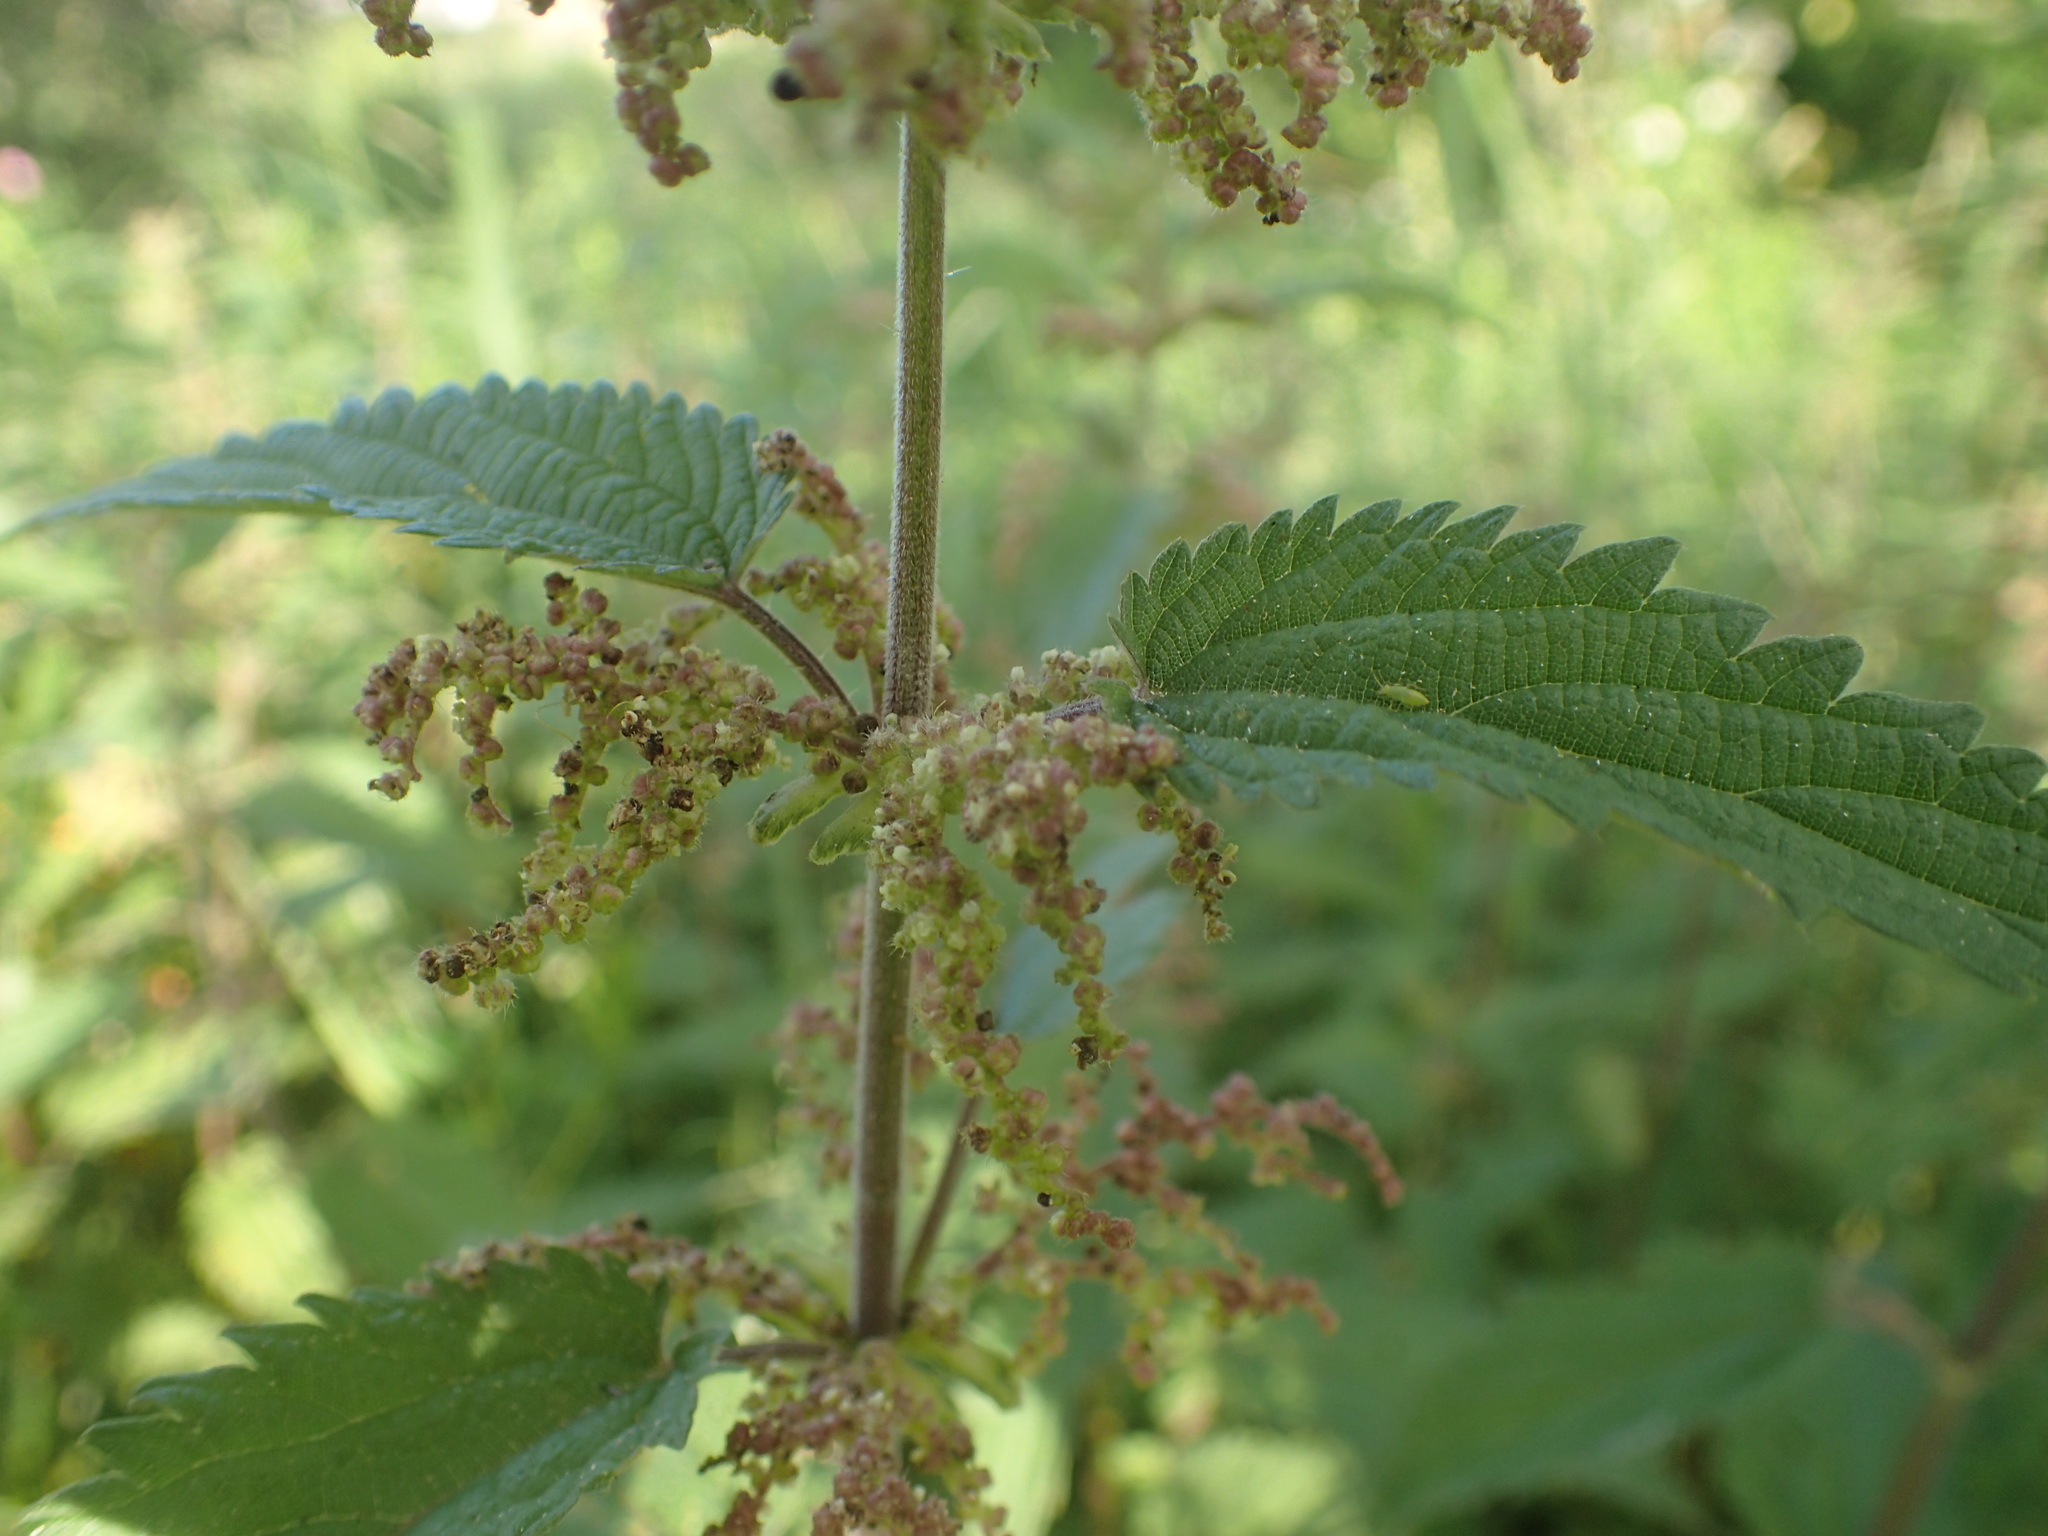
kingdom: Plantae
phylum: Tracheophyta
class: Magnoliopsida
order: Rosales
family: Urticaceae
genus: Urtica
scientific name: Urtica dioica
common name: Common nettle
